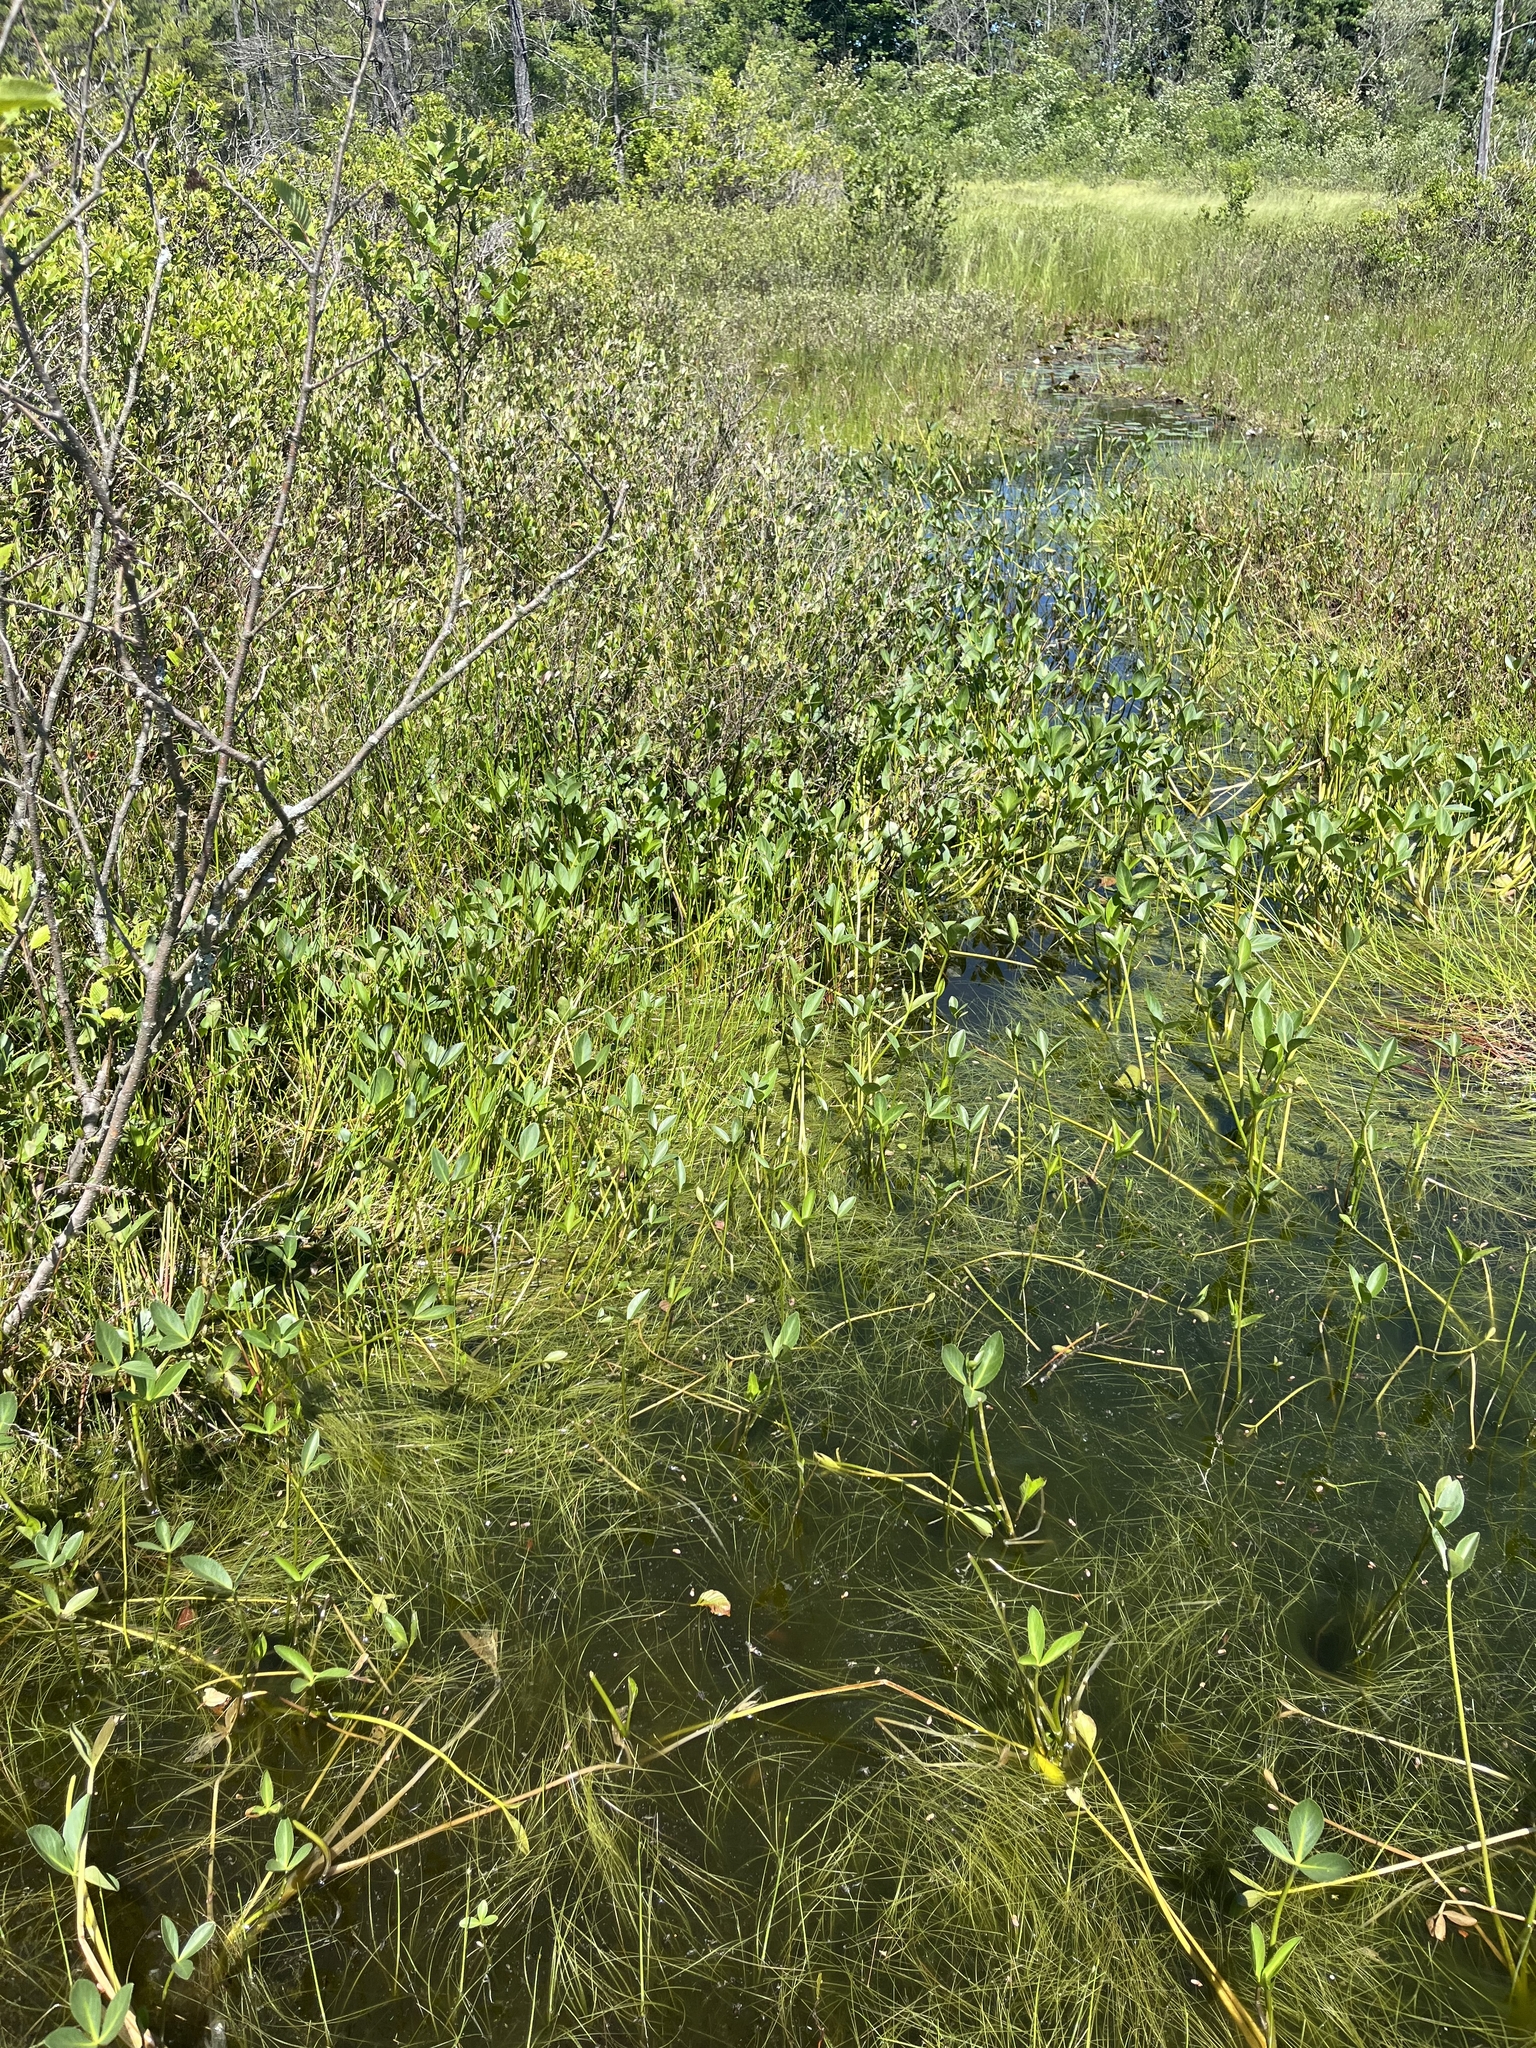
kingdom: Plantae
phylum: Tracheophyta
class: Magnoliopsida
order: Asterales
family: Menyanthaceae
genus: Menyanthes
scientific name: Menyanthes trifoliata
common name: Bogbean
